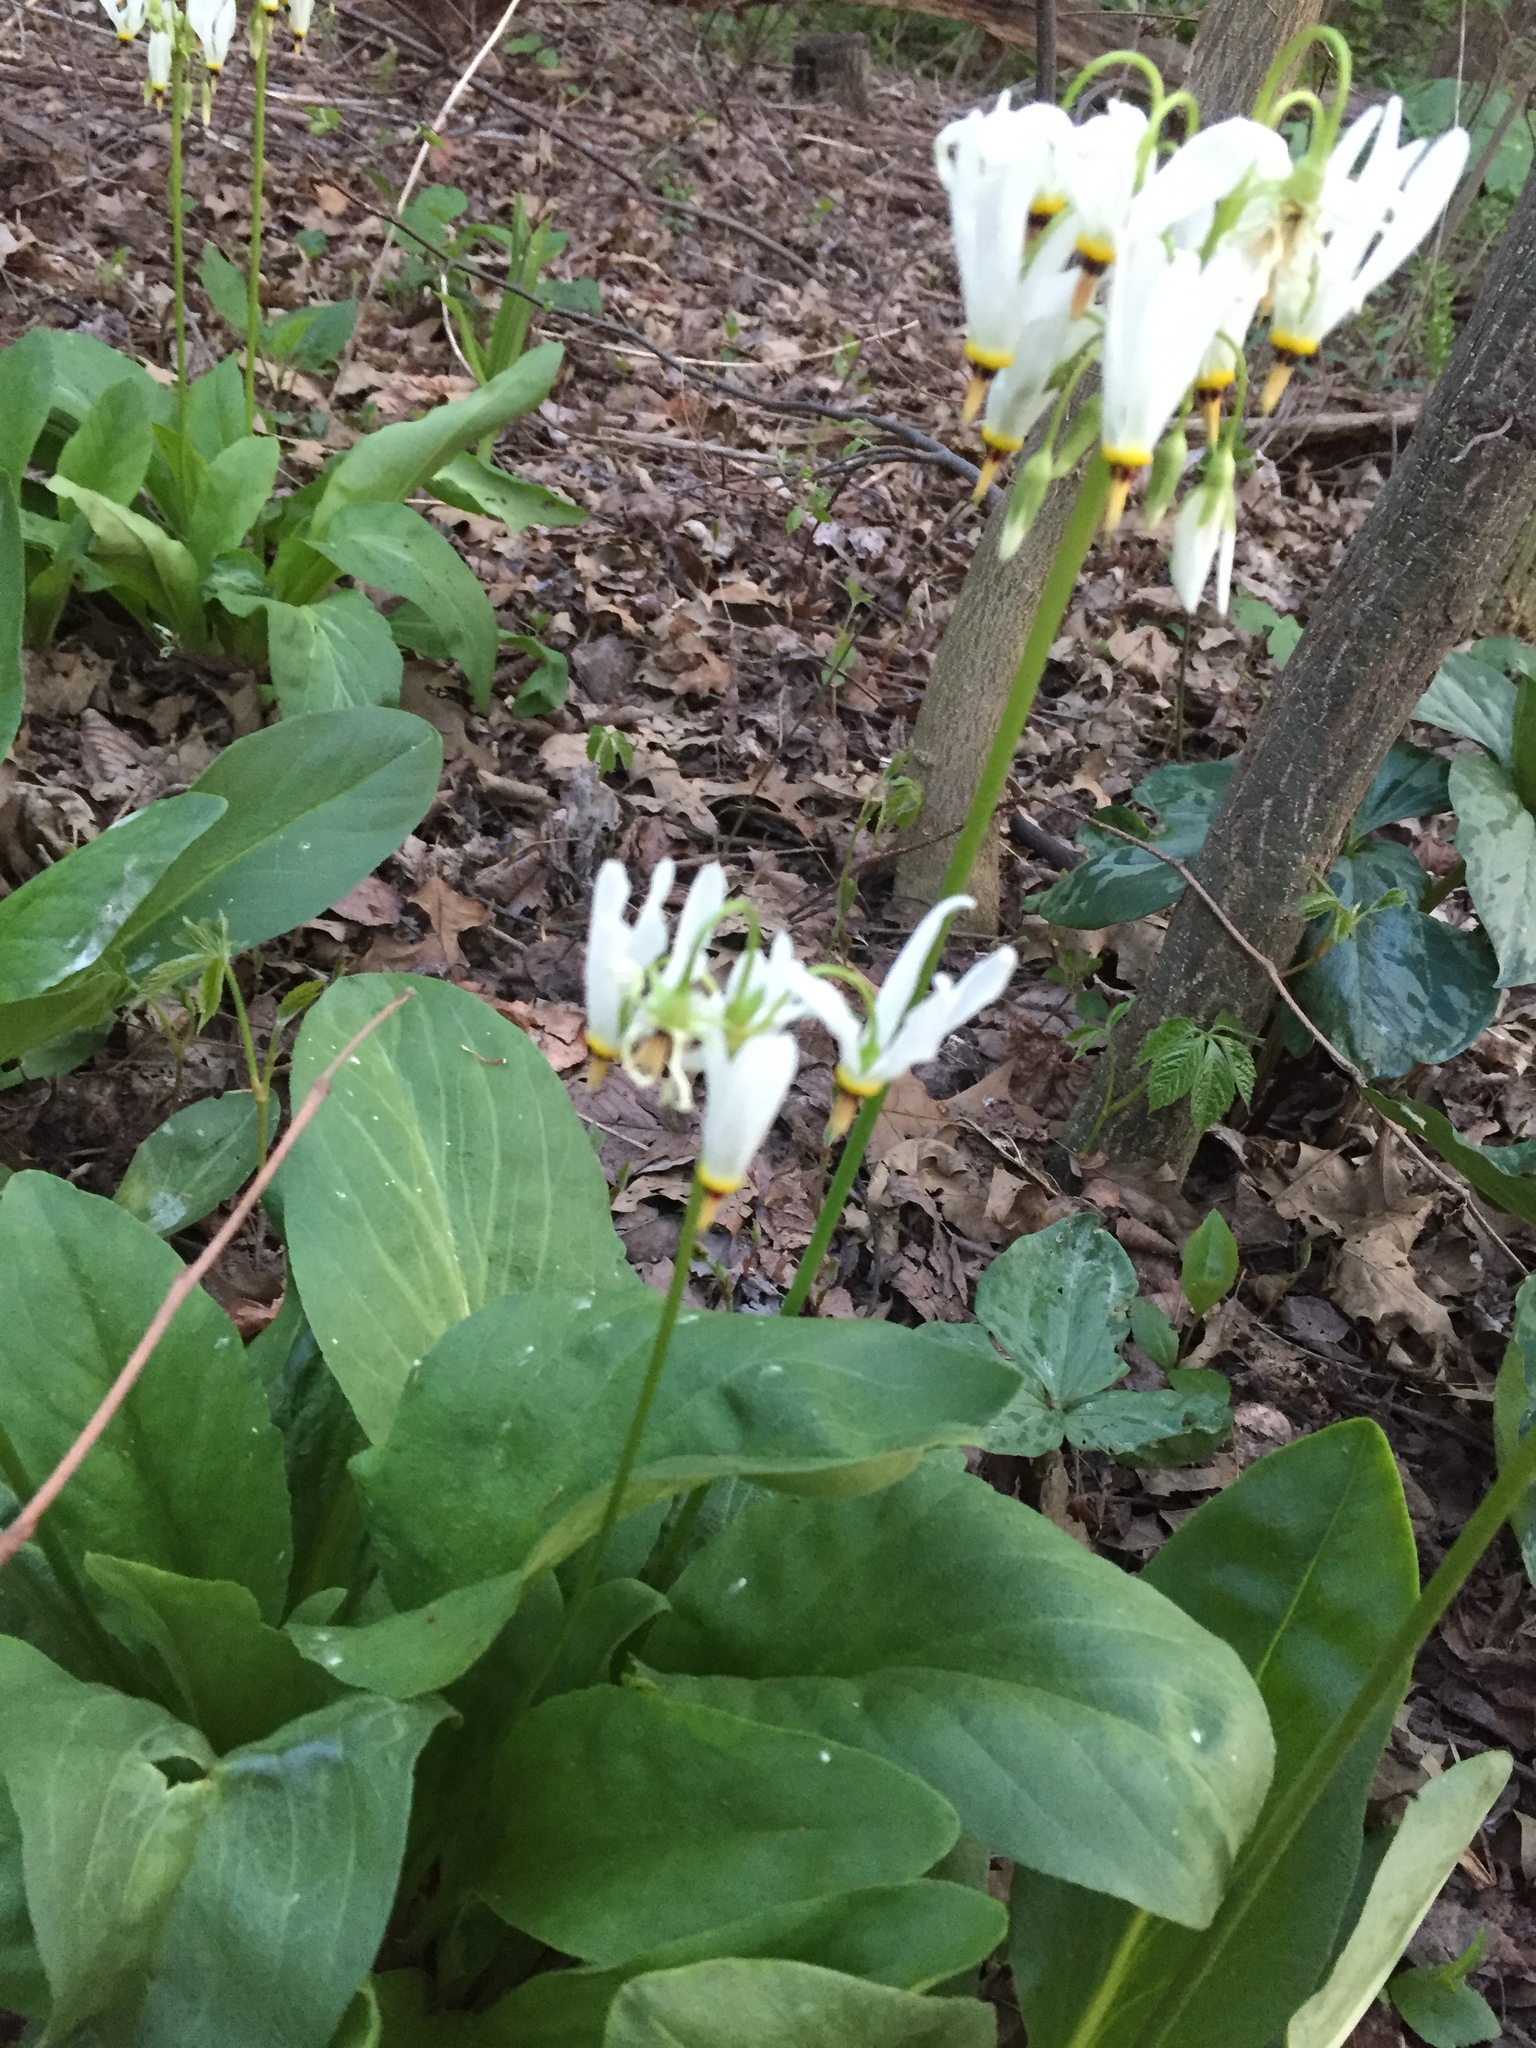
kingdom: Plantae
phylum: Tracheophyta
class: Magnoliopsida
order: Ericales
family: Primulaceae
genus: Dodecatheon
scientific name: Dodecatheon meadia
